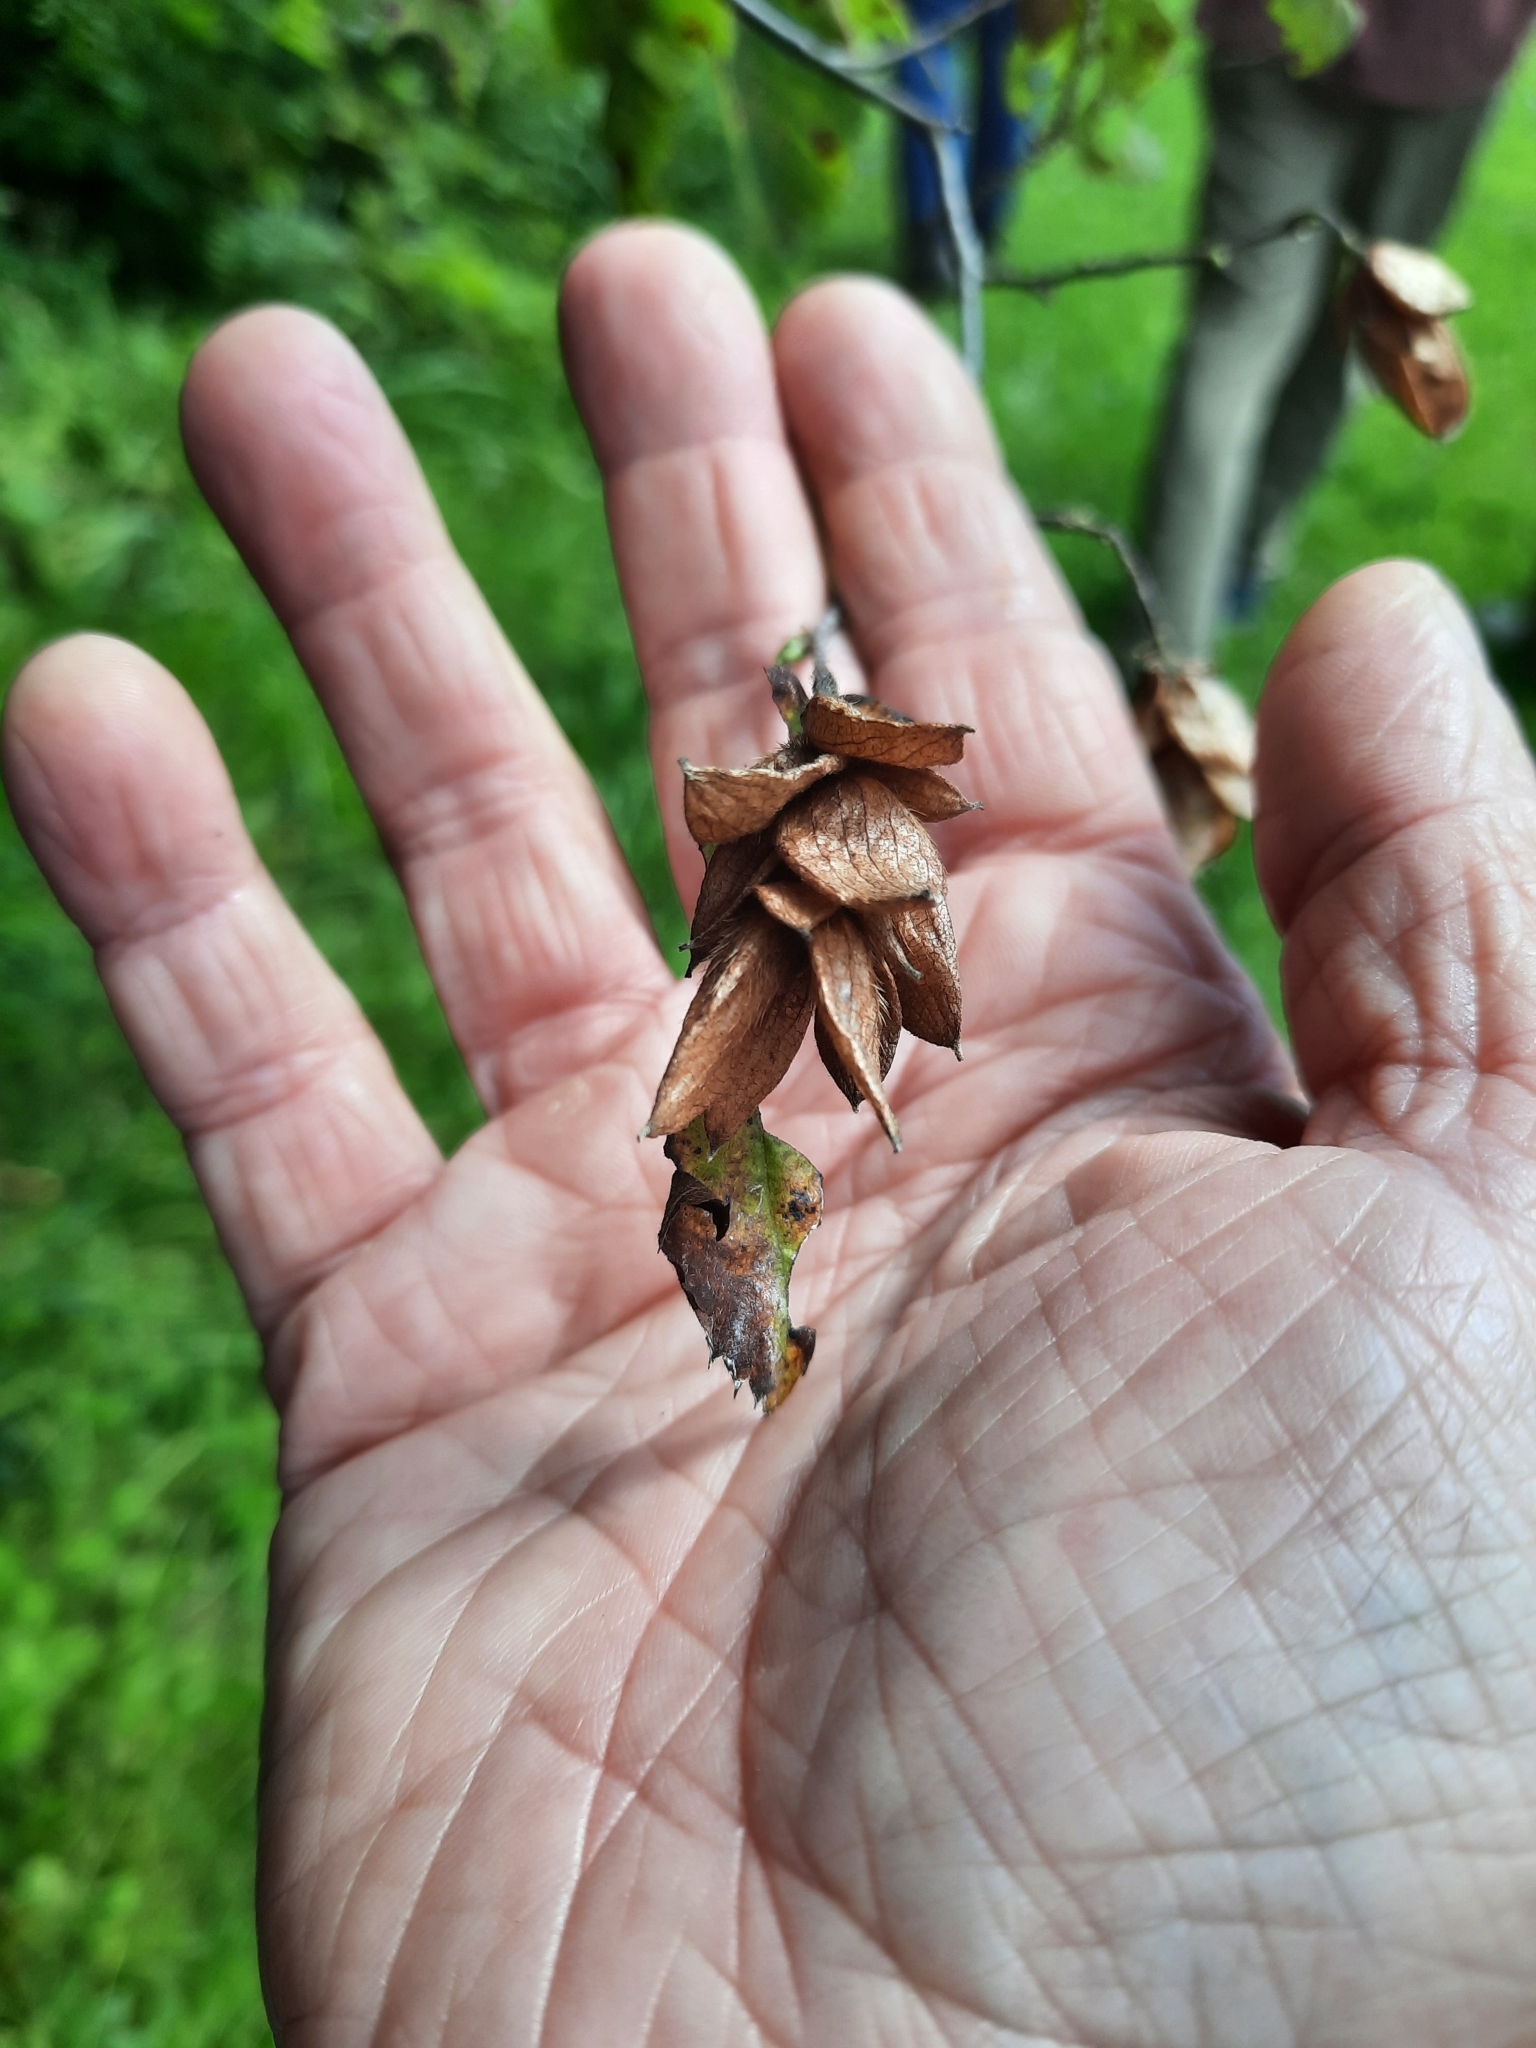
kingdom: Plantae
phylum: Tracheophyta
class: Magnoliopsida
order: Fagales
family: Betulaceae
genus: Ostrya
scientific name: Ostrya virginiana
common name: Ironwood
